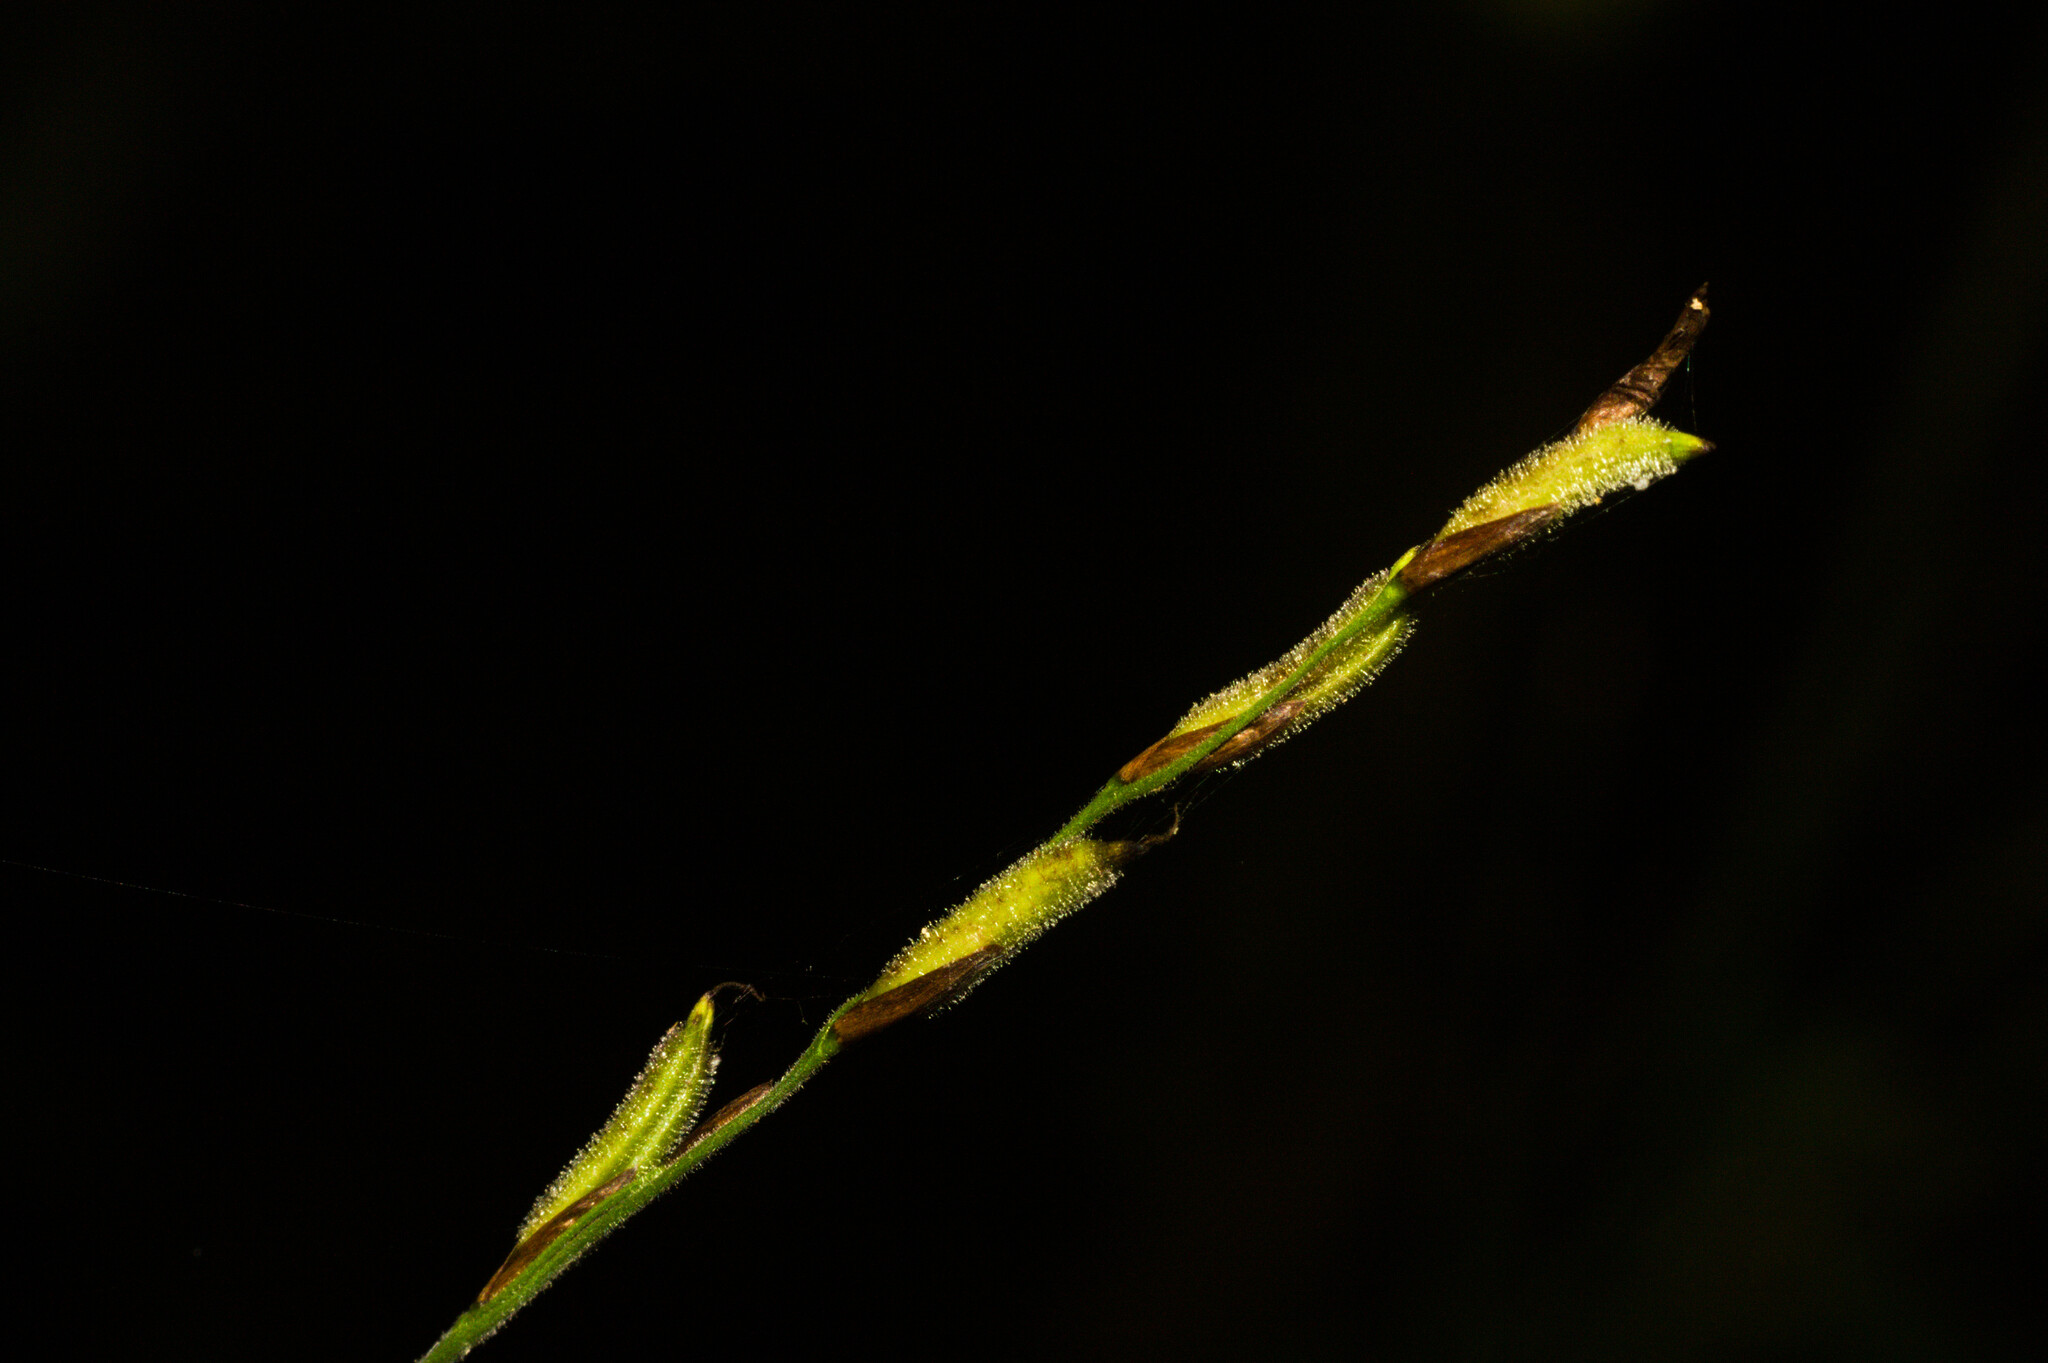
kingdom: Plantae
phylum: Tracheophyta
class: Liliopsida
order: Poales
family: Poaceae
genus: Pharus
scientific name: Pharus lappulaceus
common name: Creeping leafstalk grass
